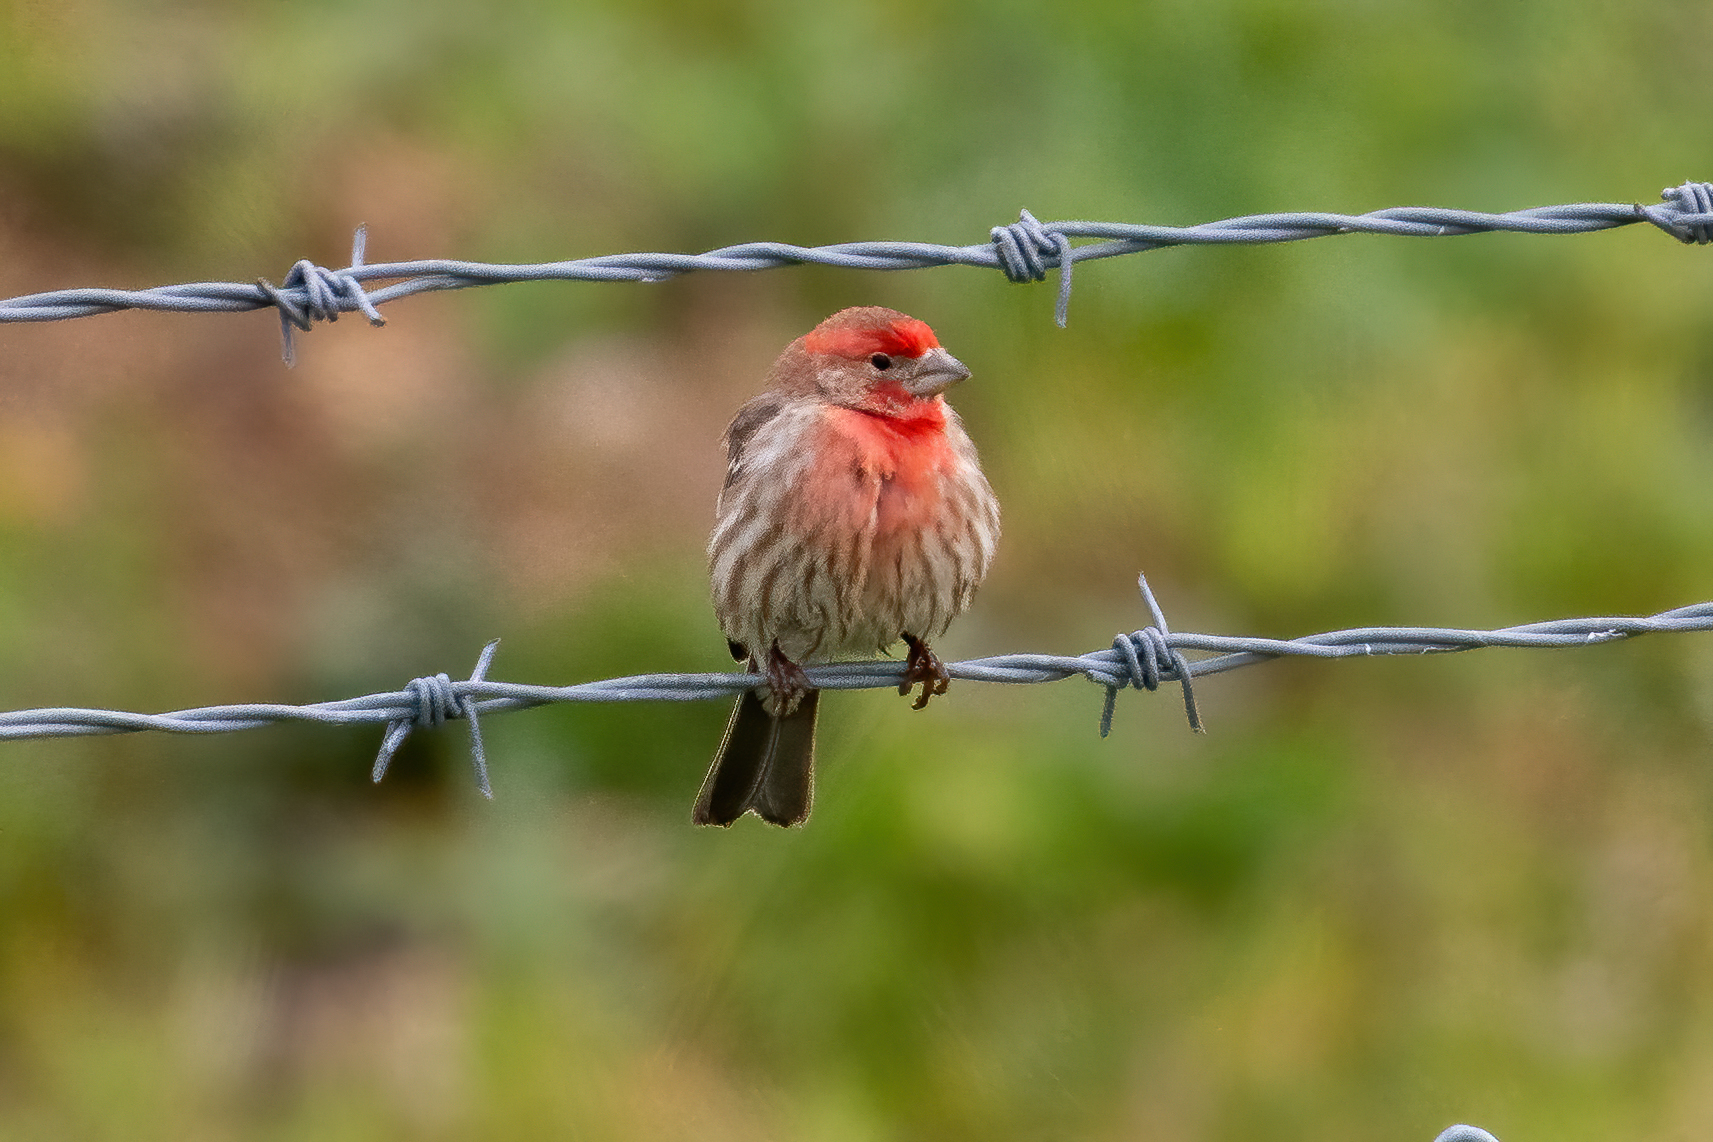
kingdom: Animalia
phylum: Chordata
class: Aves
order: Passeriformes
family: Fringillidae
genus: Haemorhous
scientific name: Haemorhous mexicanus
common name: House finch
